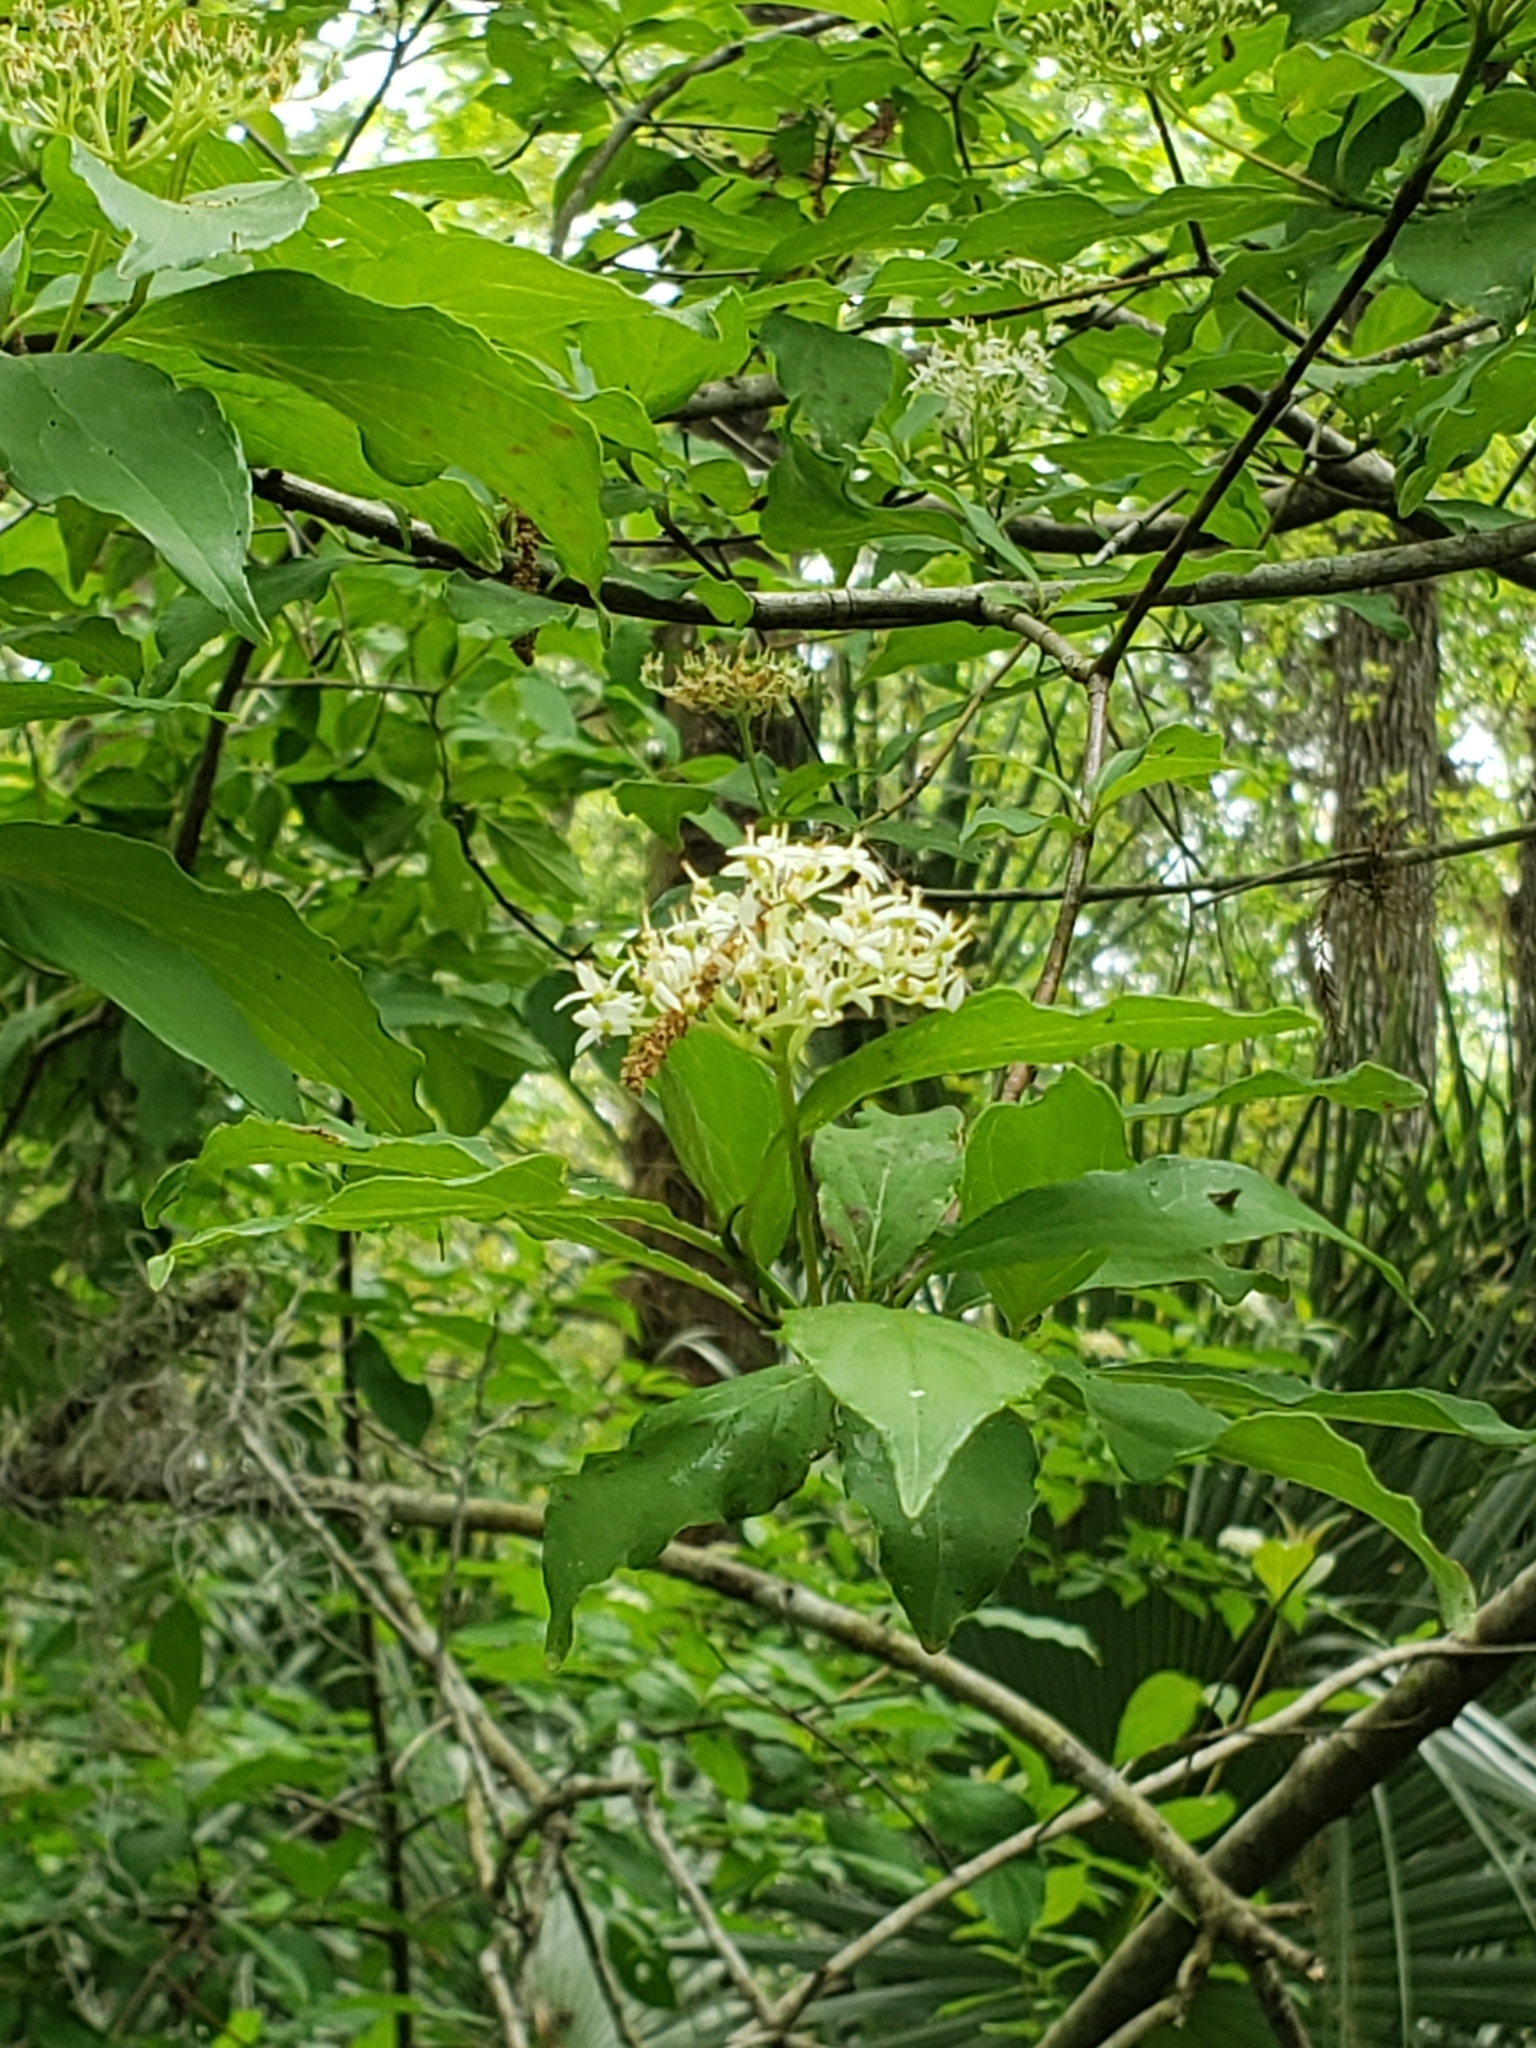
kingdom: Plantae
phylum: Tracheophyta
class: Magnoliopsida
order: Cornales
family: Cornaceae
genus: Cornus
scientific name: Cornus foemina
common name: Swamp dogwood
